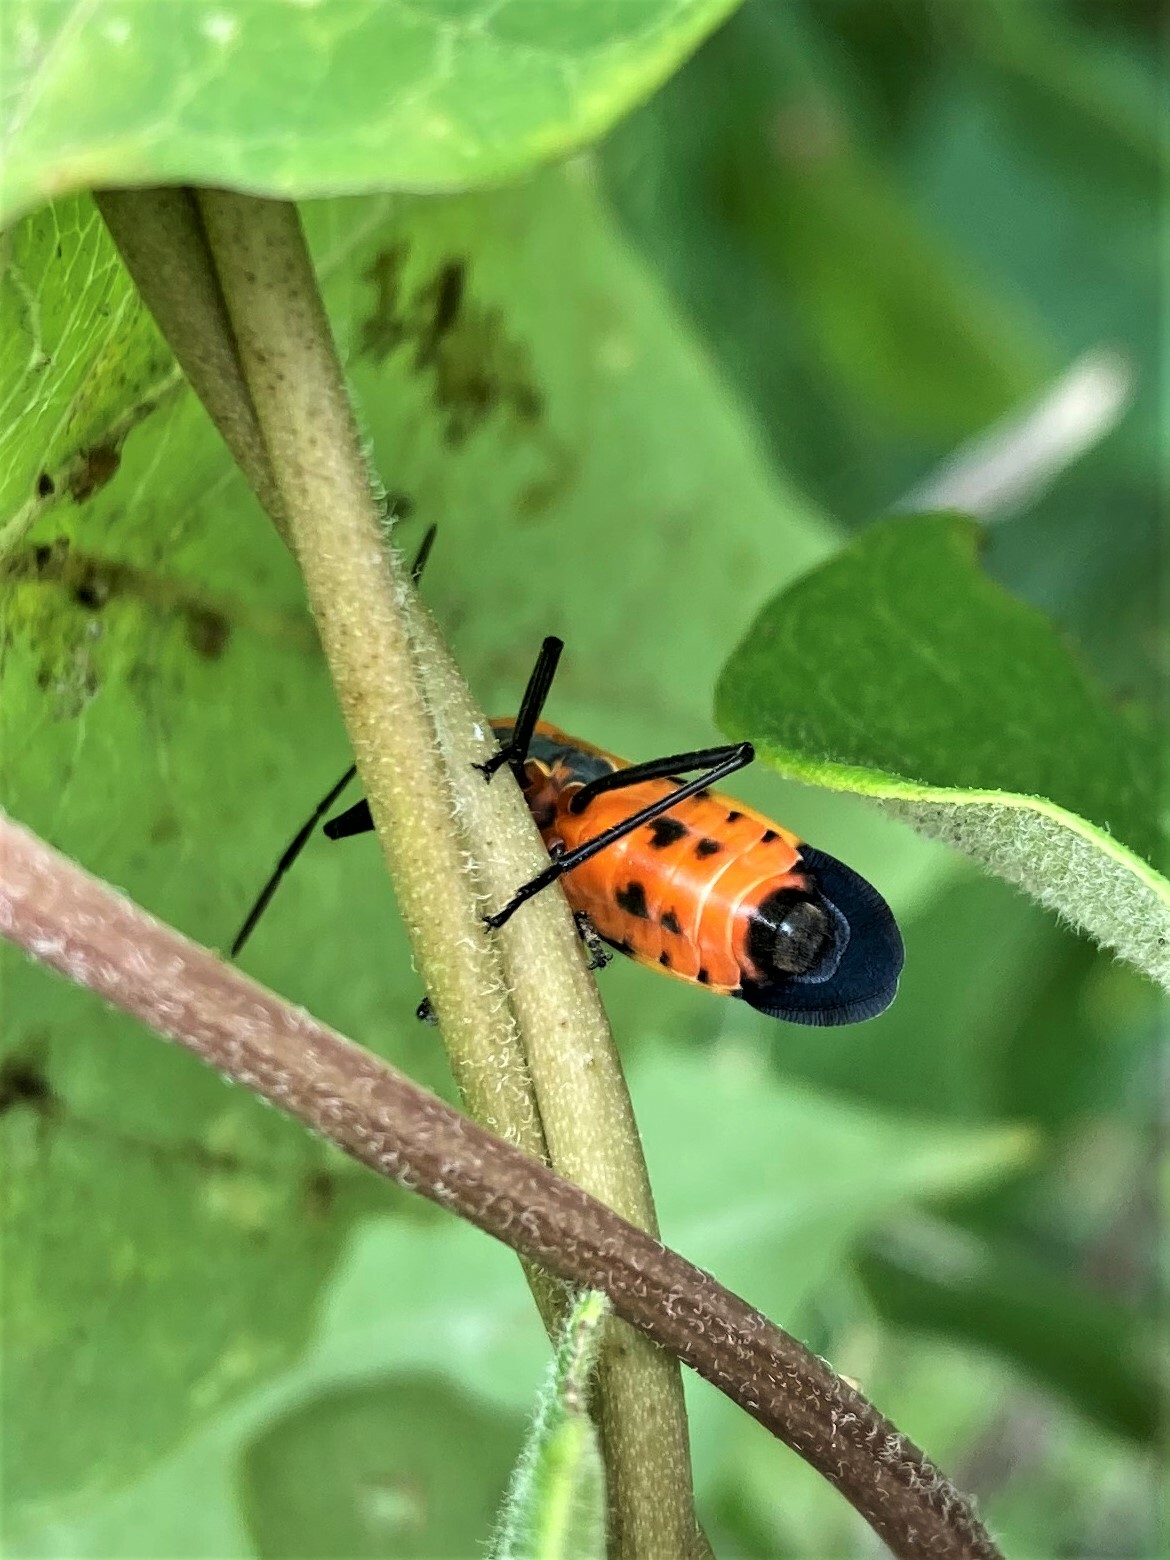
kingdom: Animalia
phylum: Arthropoda
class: Insecta
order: Hemiptera
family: Lygaeidae
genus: Oncopeltus
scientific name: Oncopeltus fasciatus
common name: Large milkweed bug
